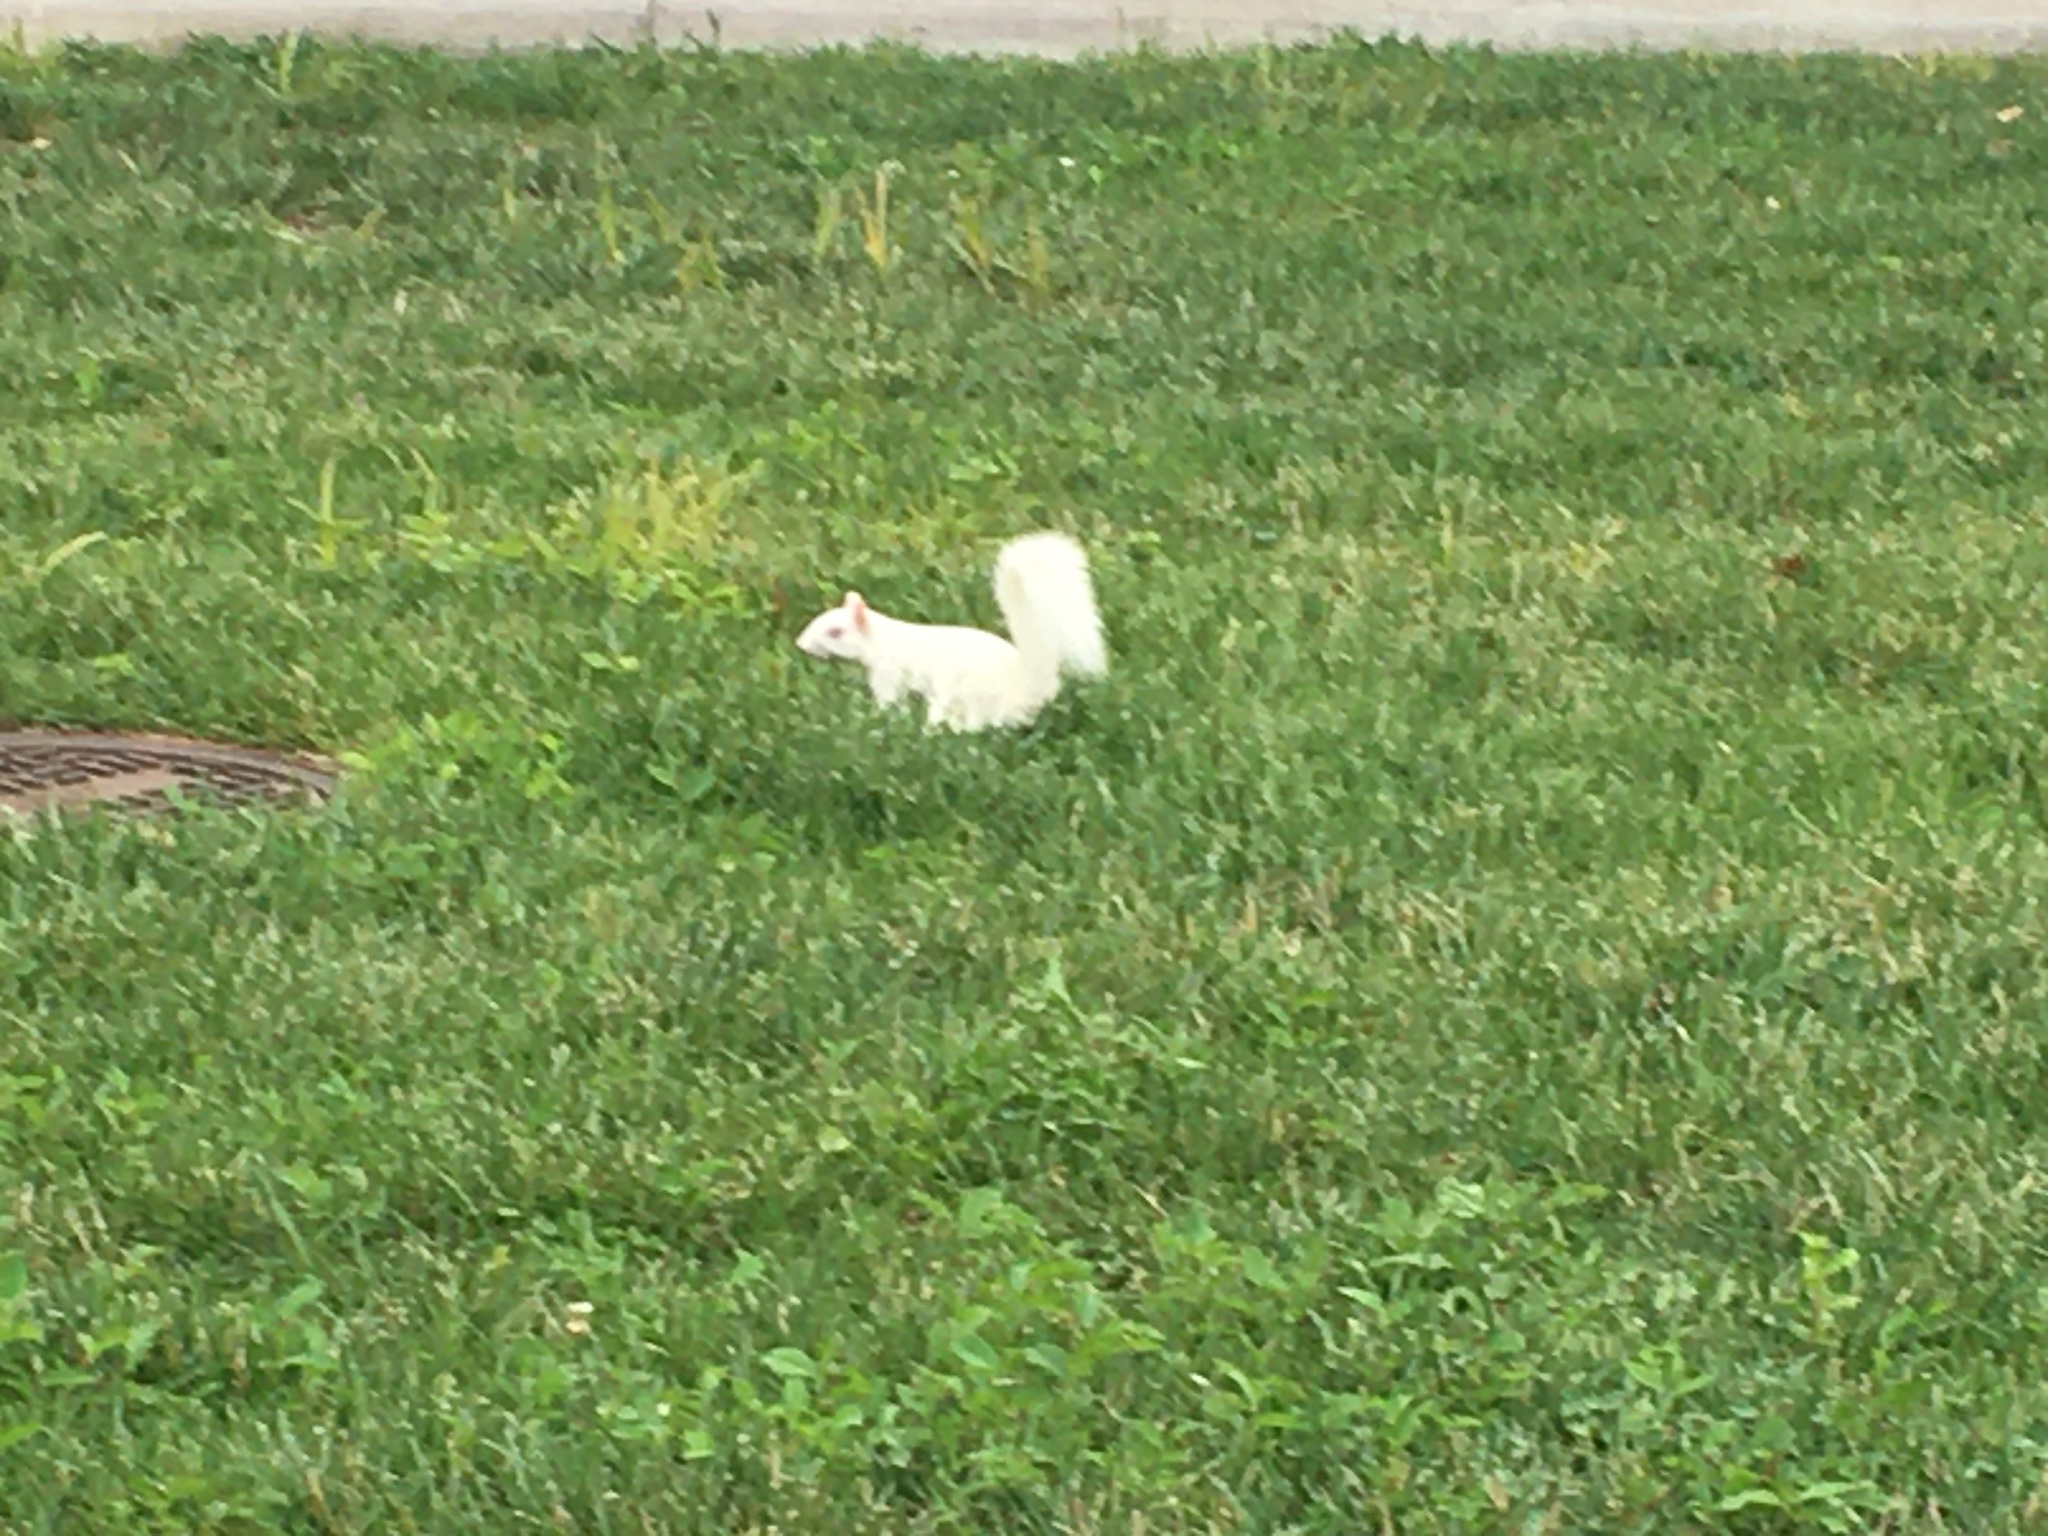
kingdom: Animalia
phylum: Chordata
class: Mammalia
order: Rodentia
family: Sciuridae
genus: Sciurus
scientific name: Sciurus carolinensis
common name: Eastern gray squirrel
